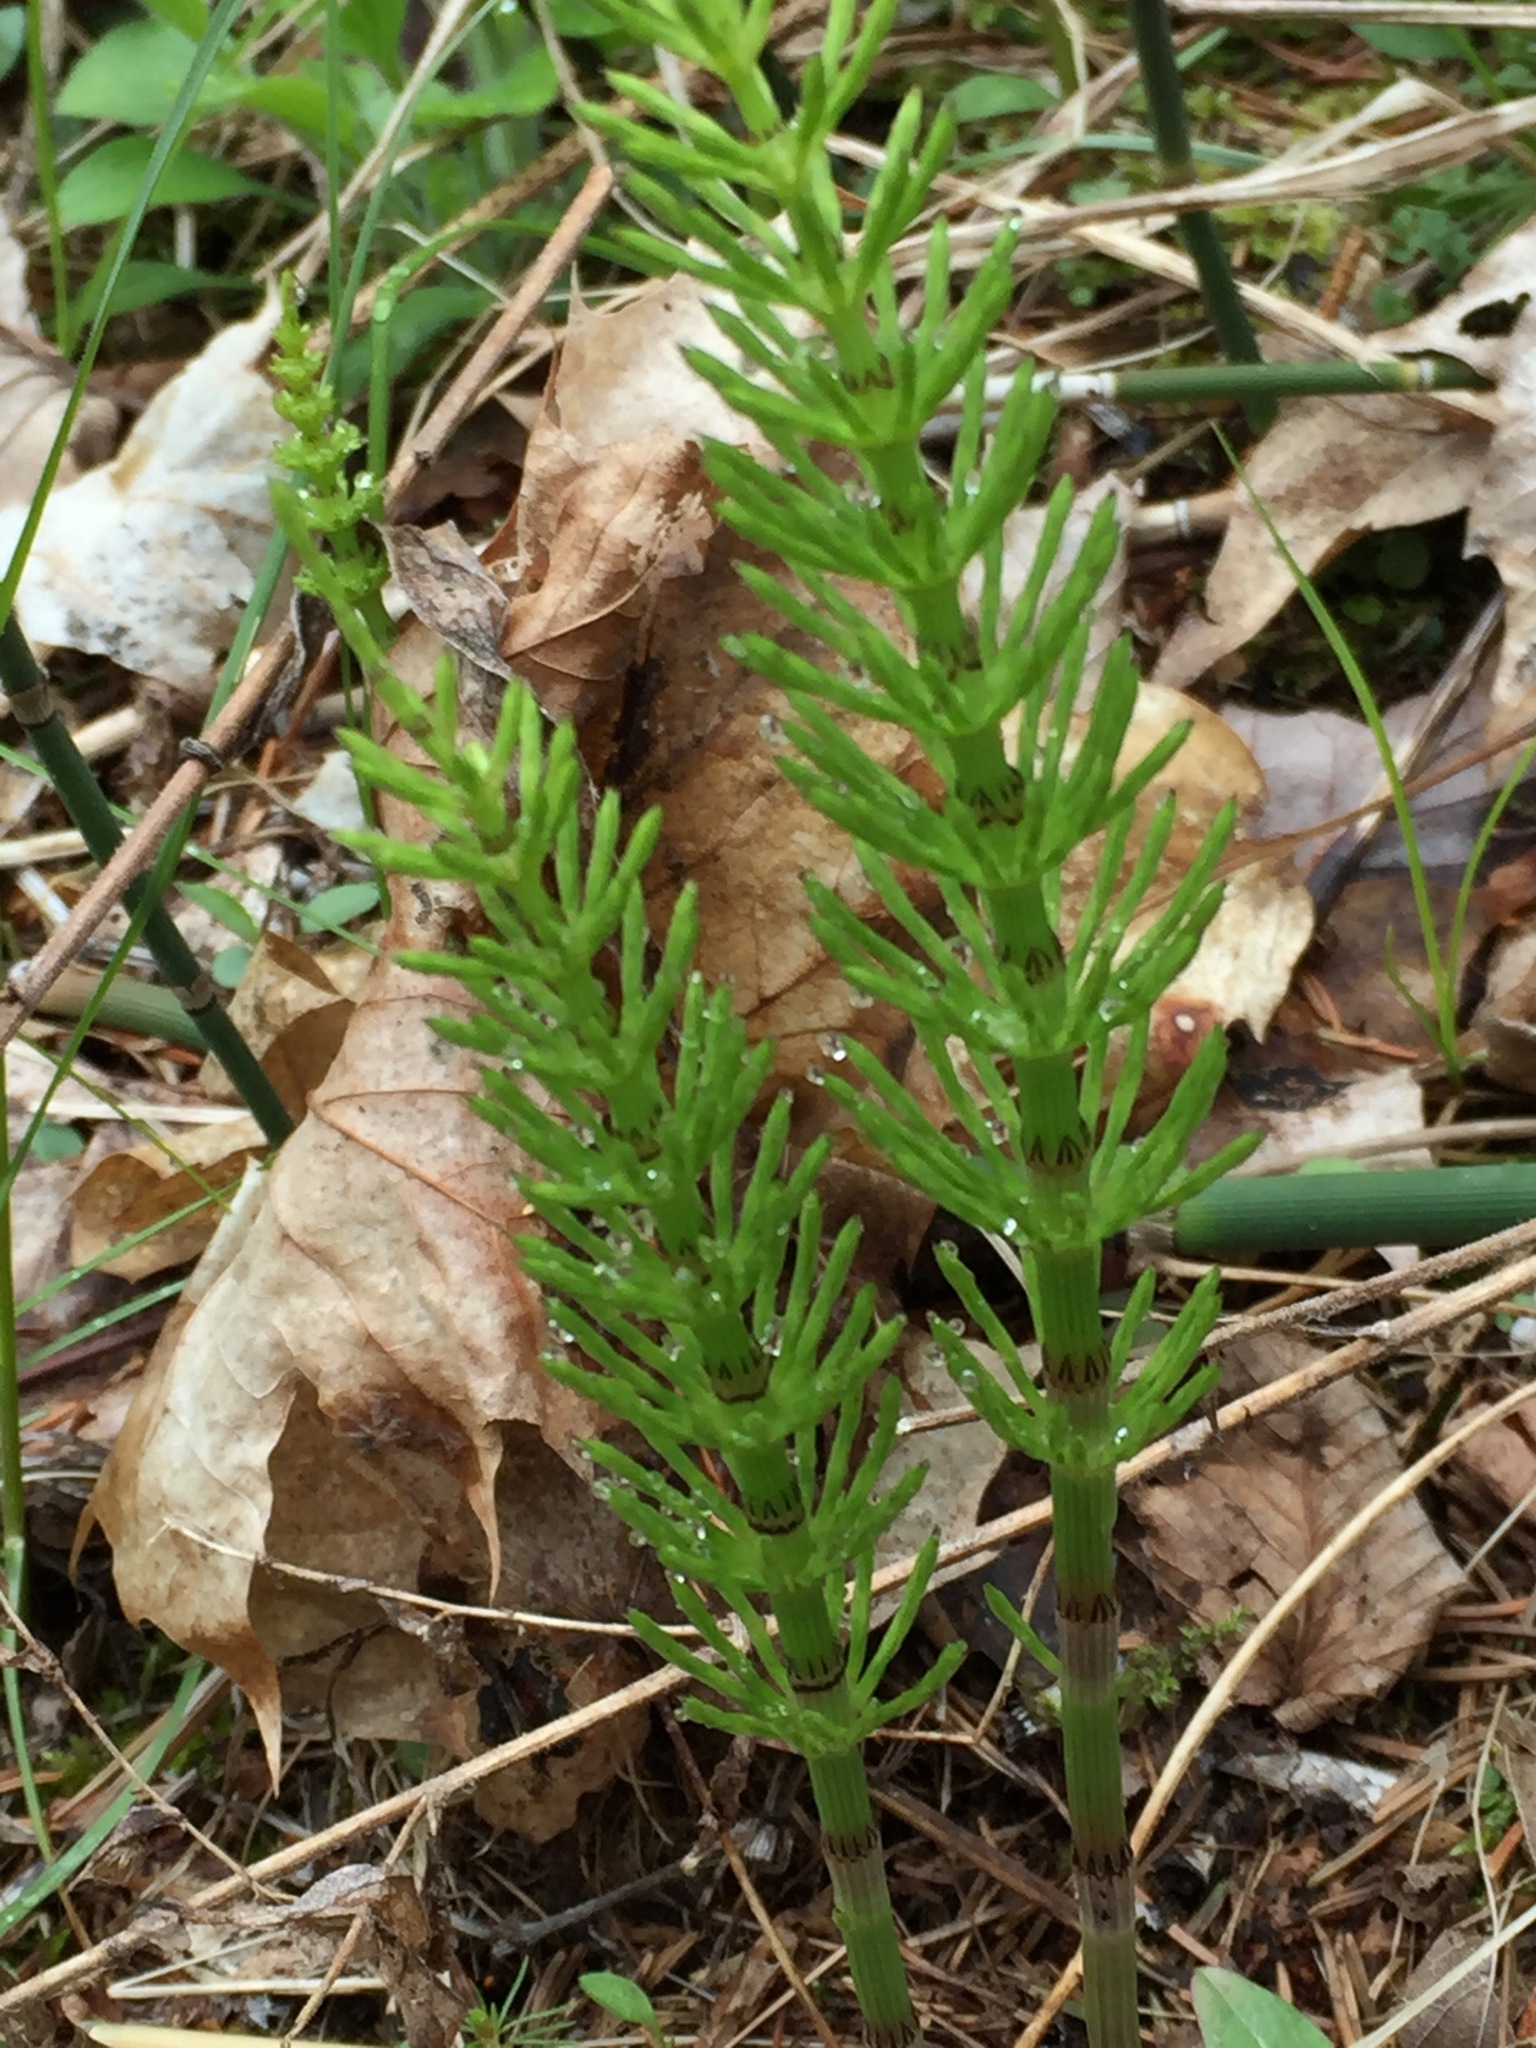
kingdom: Plantae
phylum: Tracheophyta
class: Polypodiopsida
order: Equisetales
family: Equisetaceae
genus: Equisetum
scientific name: Equisetum arvense
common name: Field horsetail
